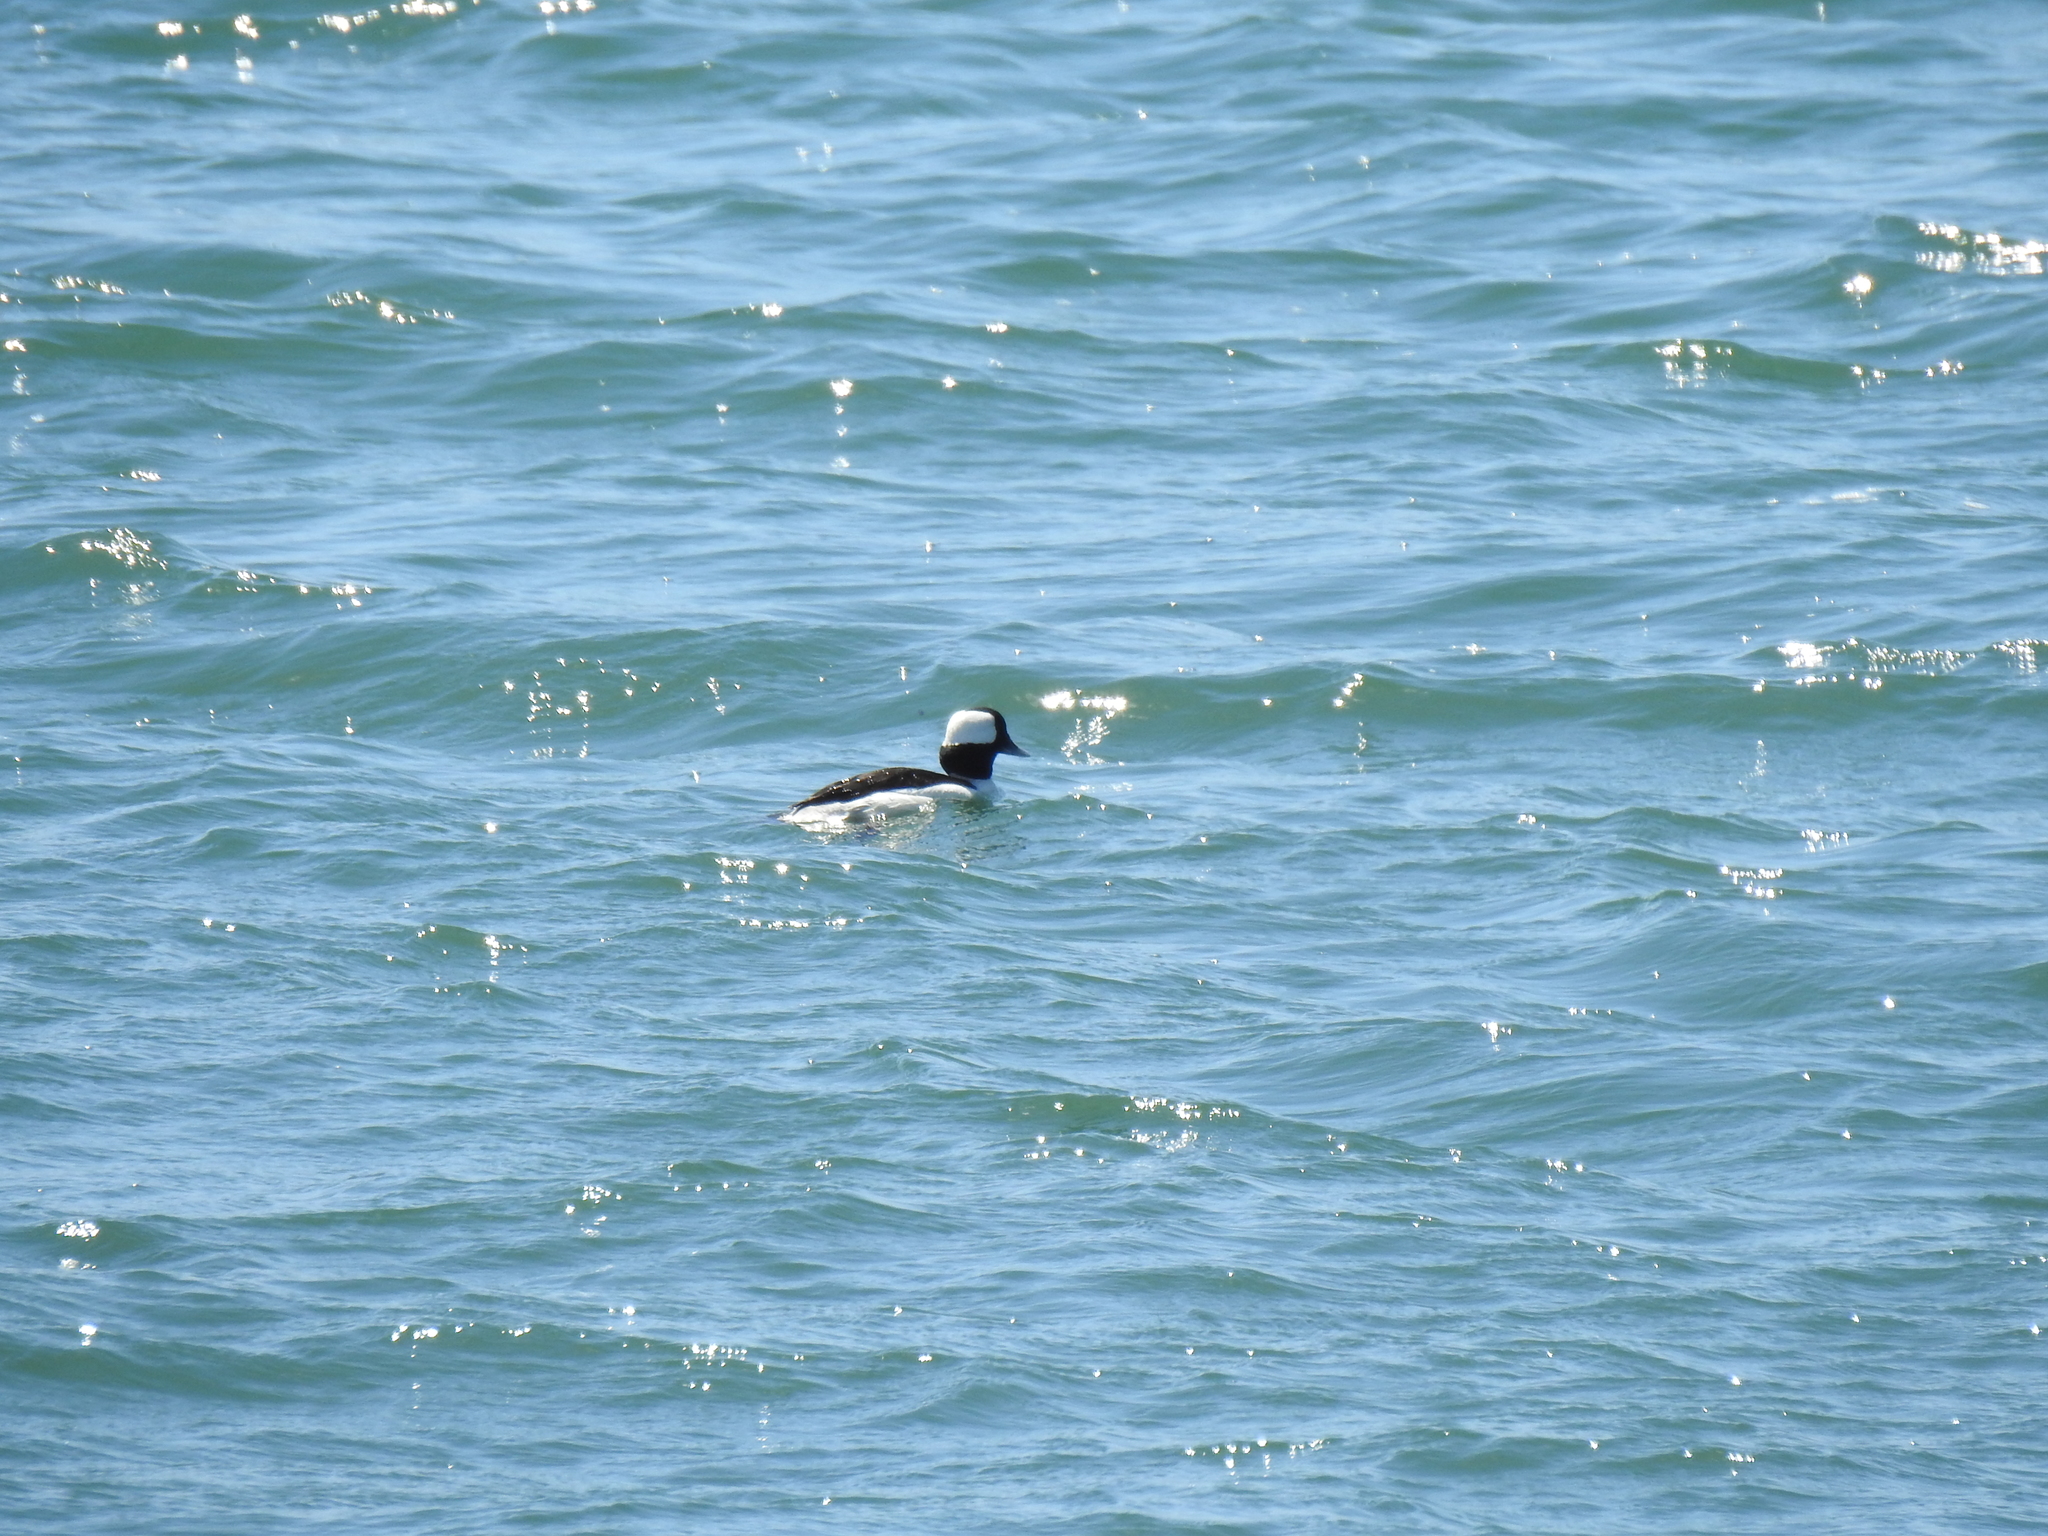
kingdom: Animalia
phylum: Chordata
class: Aves
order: Anseriformes
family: Anatidae
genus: Bucephala
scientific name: Bucephala albeola
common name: Bufflehead
